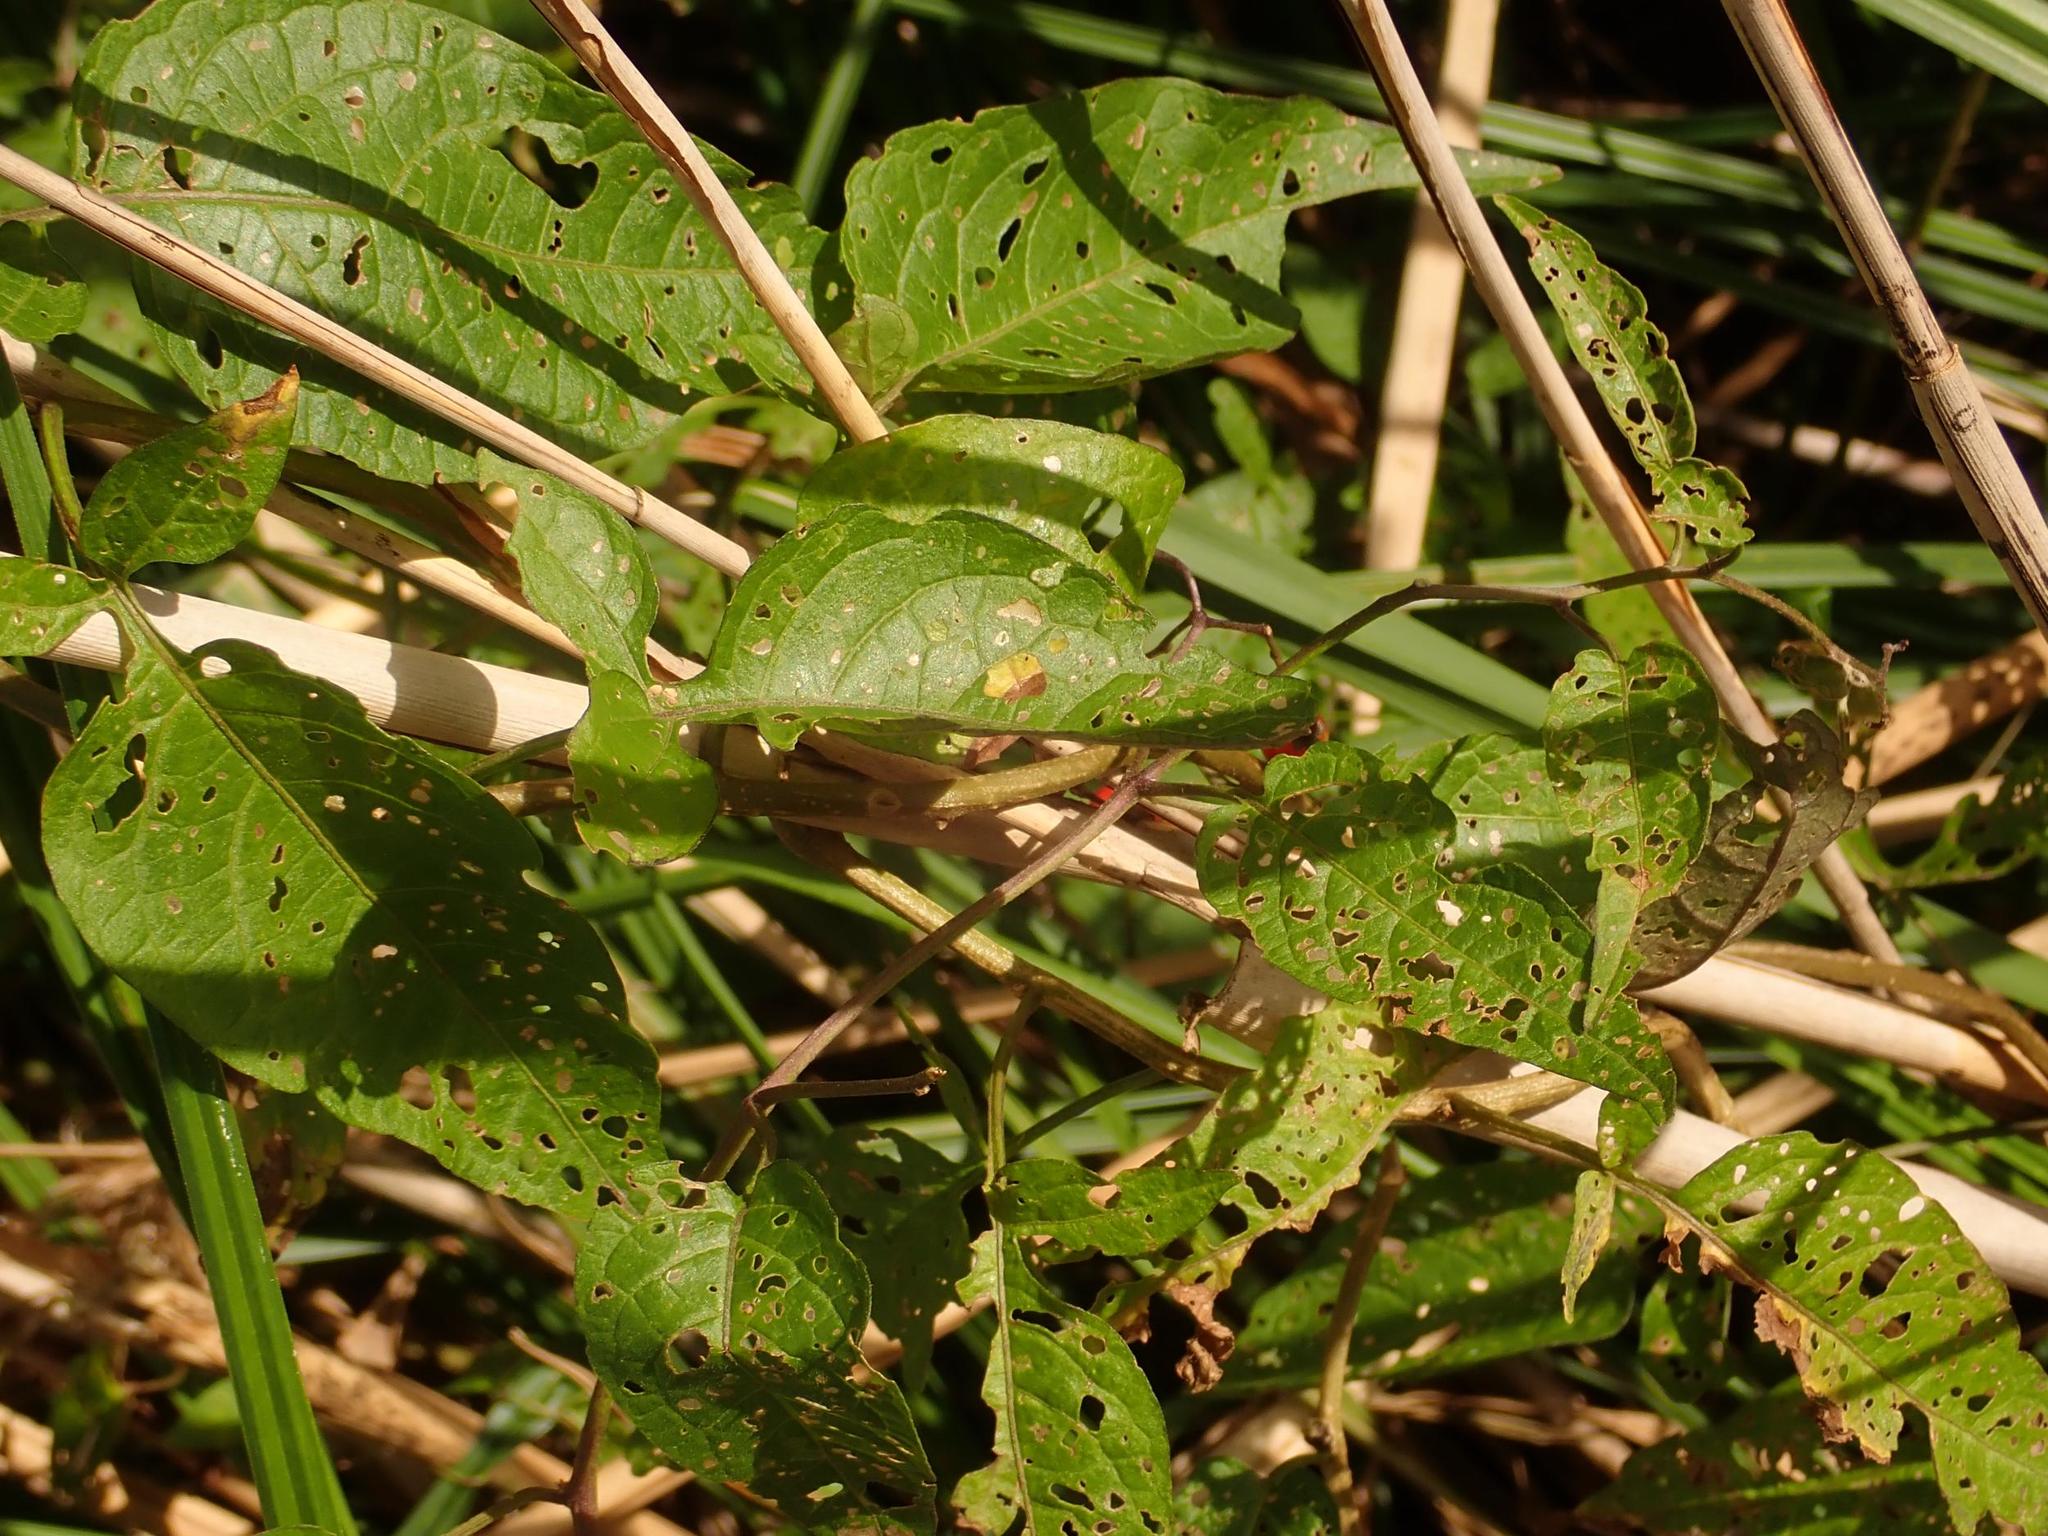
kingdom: Plantae
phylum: Tracheophyta
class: Magnoliopsida
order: Solanales
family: Solanaceae
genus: Solanum
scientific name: Solanum dulcamara
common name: Climbing nightshade
